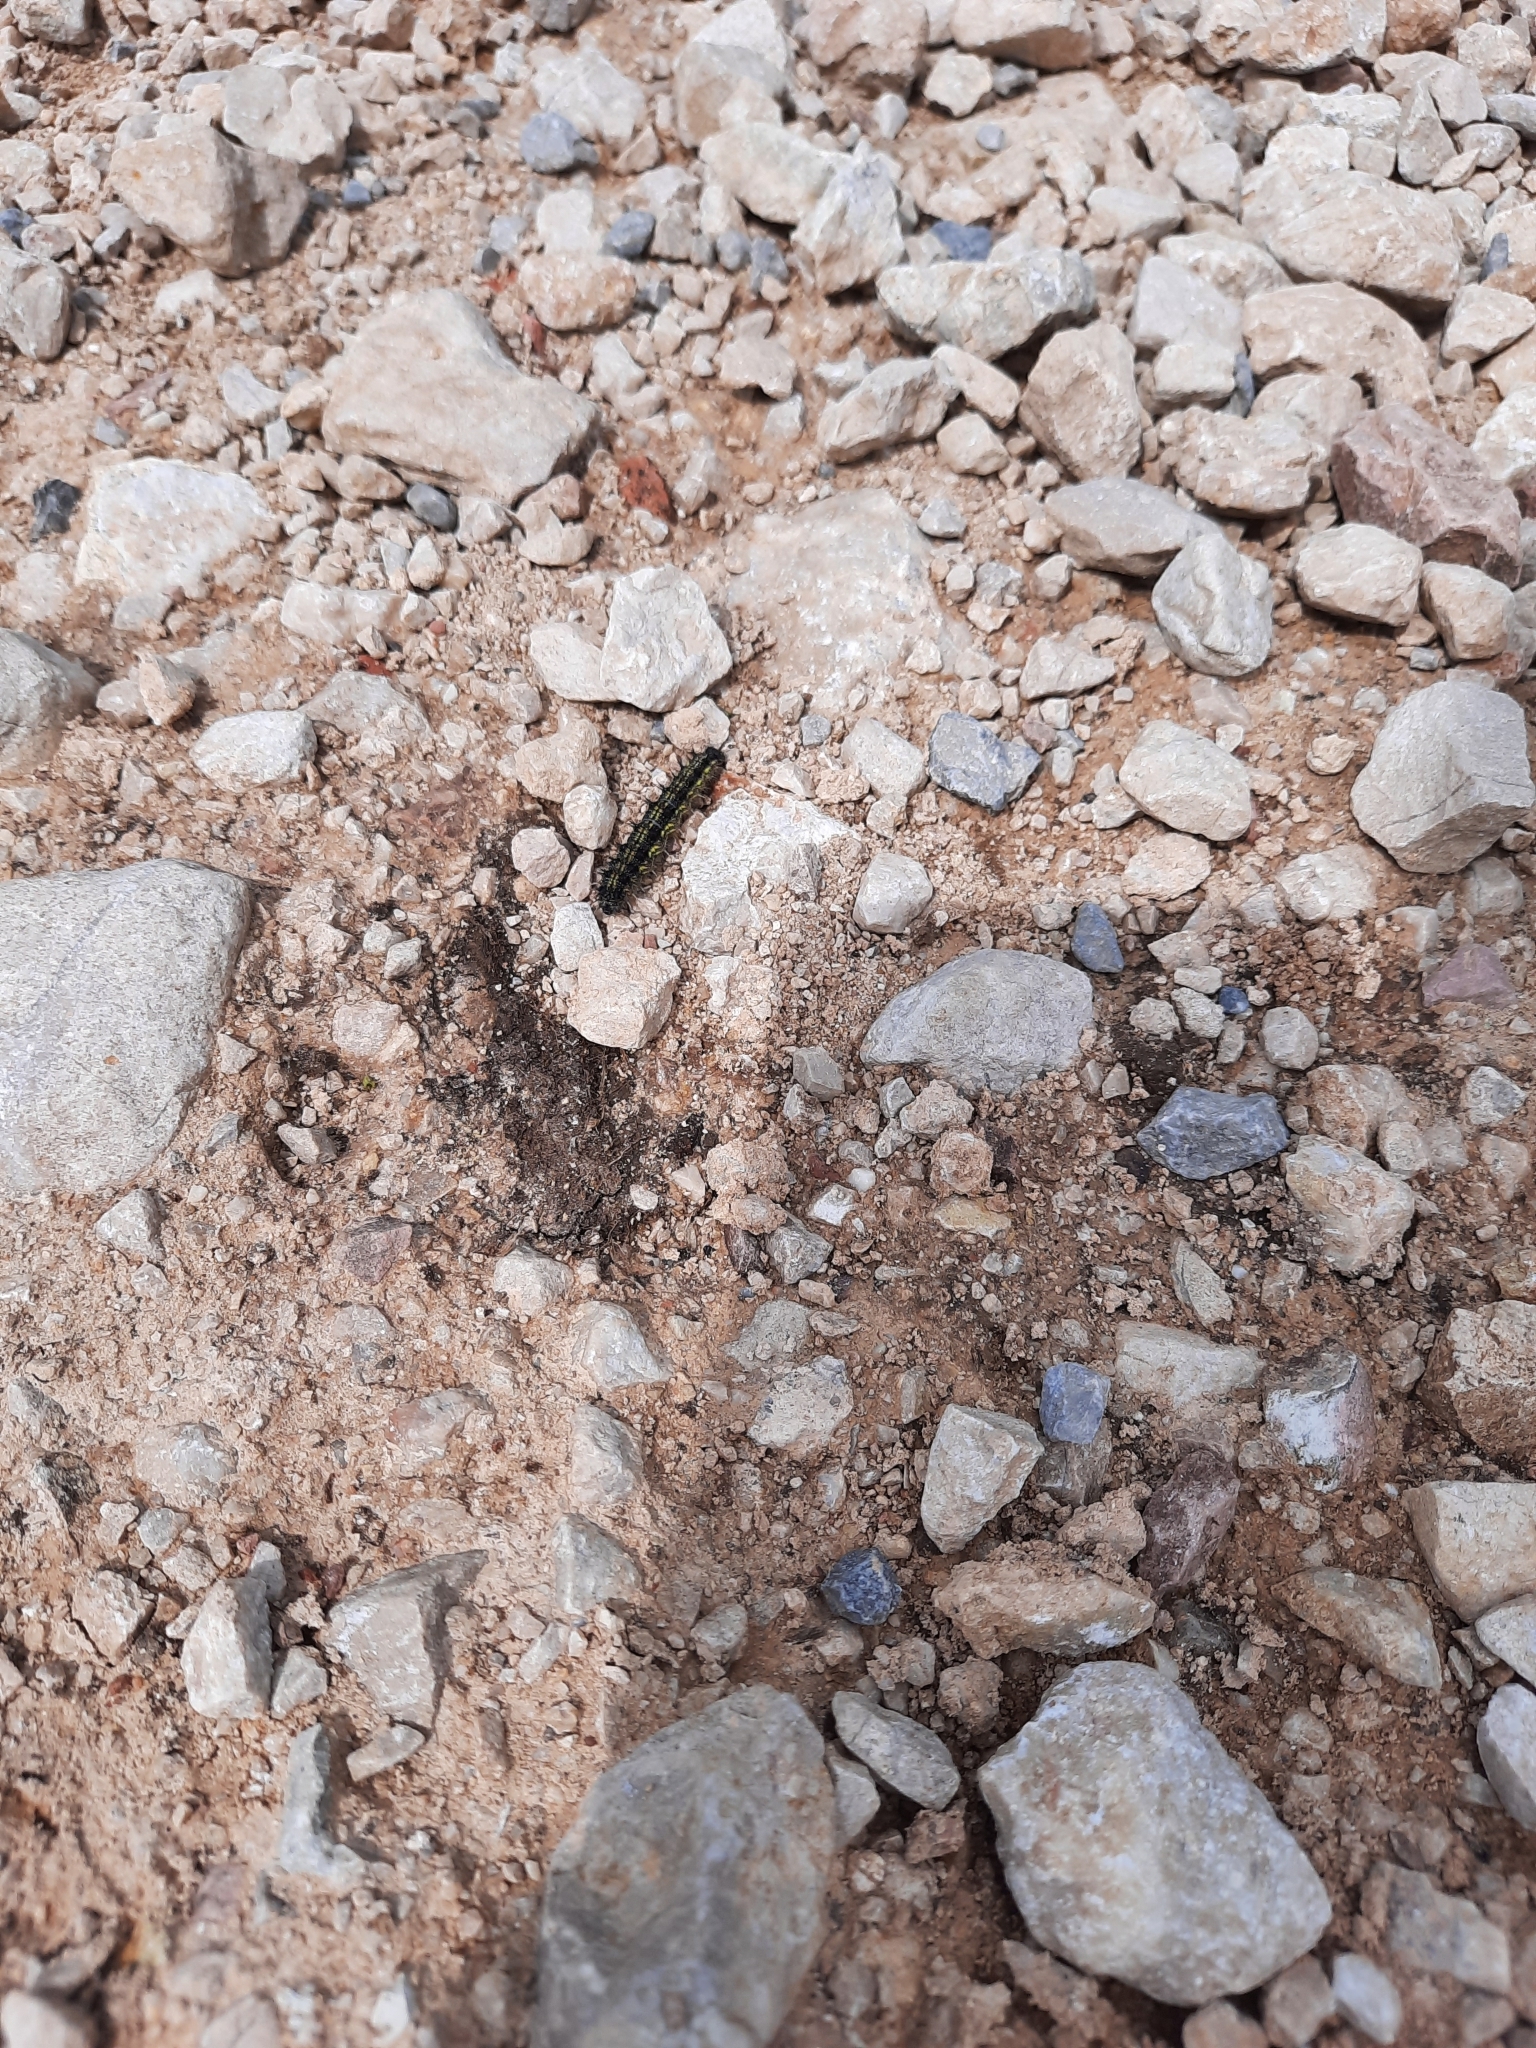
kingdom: Animalia
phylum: Arthropoda
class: Insecta
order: Lepidoptera
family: Nymphalidae
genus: Aglais
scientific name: Aglais urticae
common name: Small tortoiseshell
